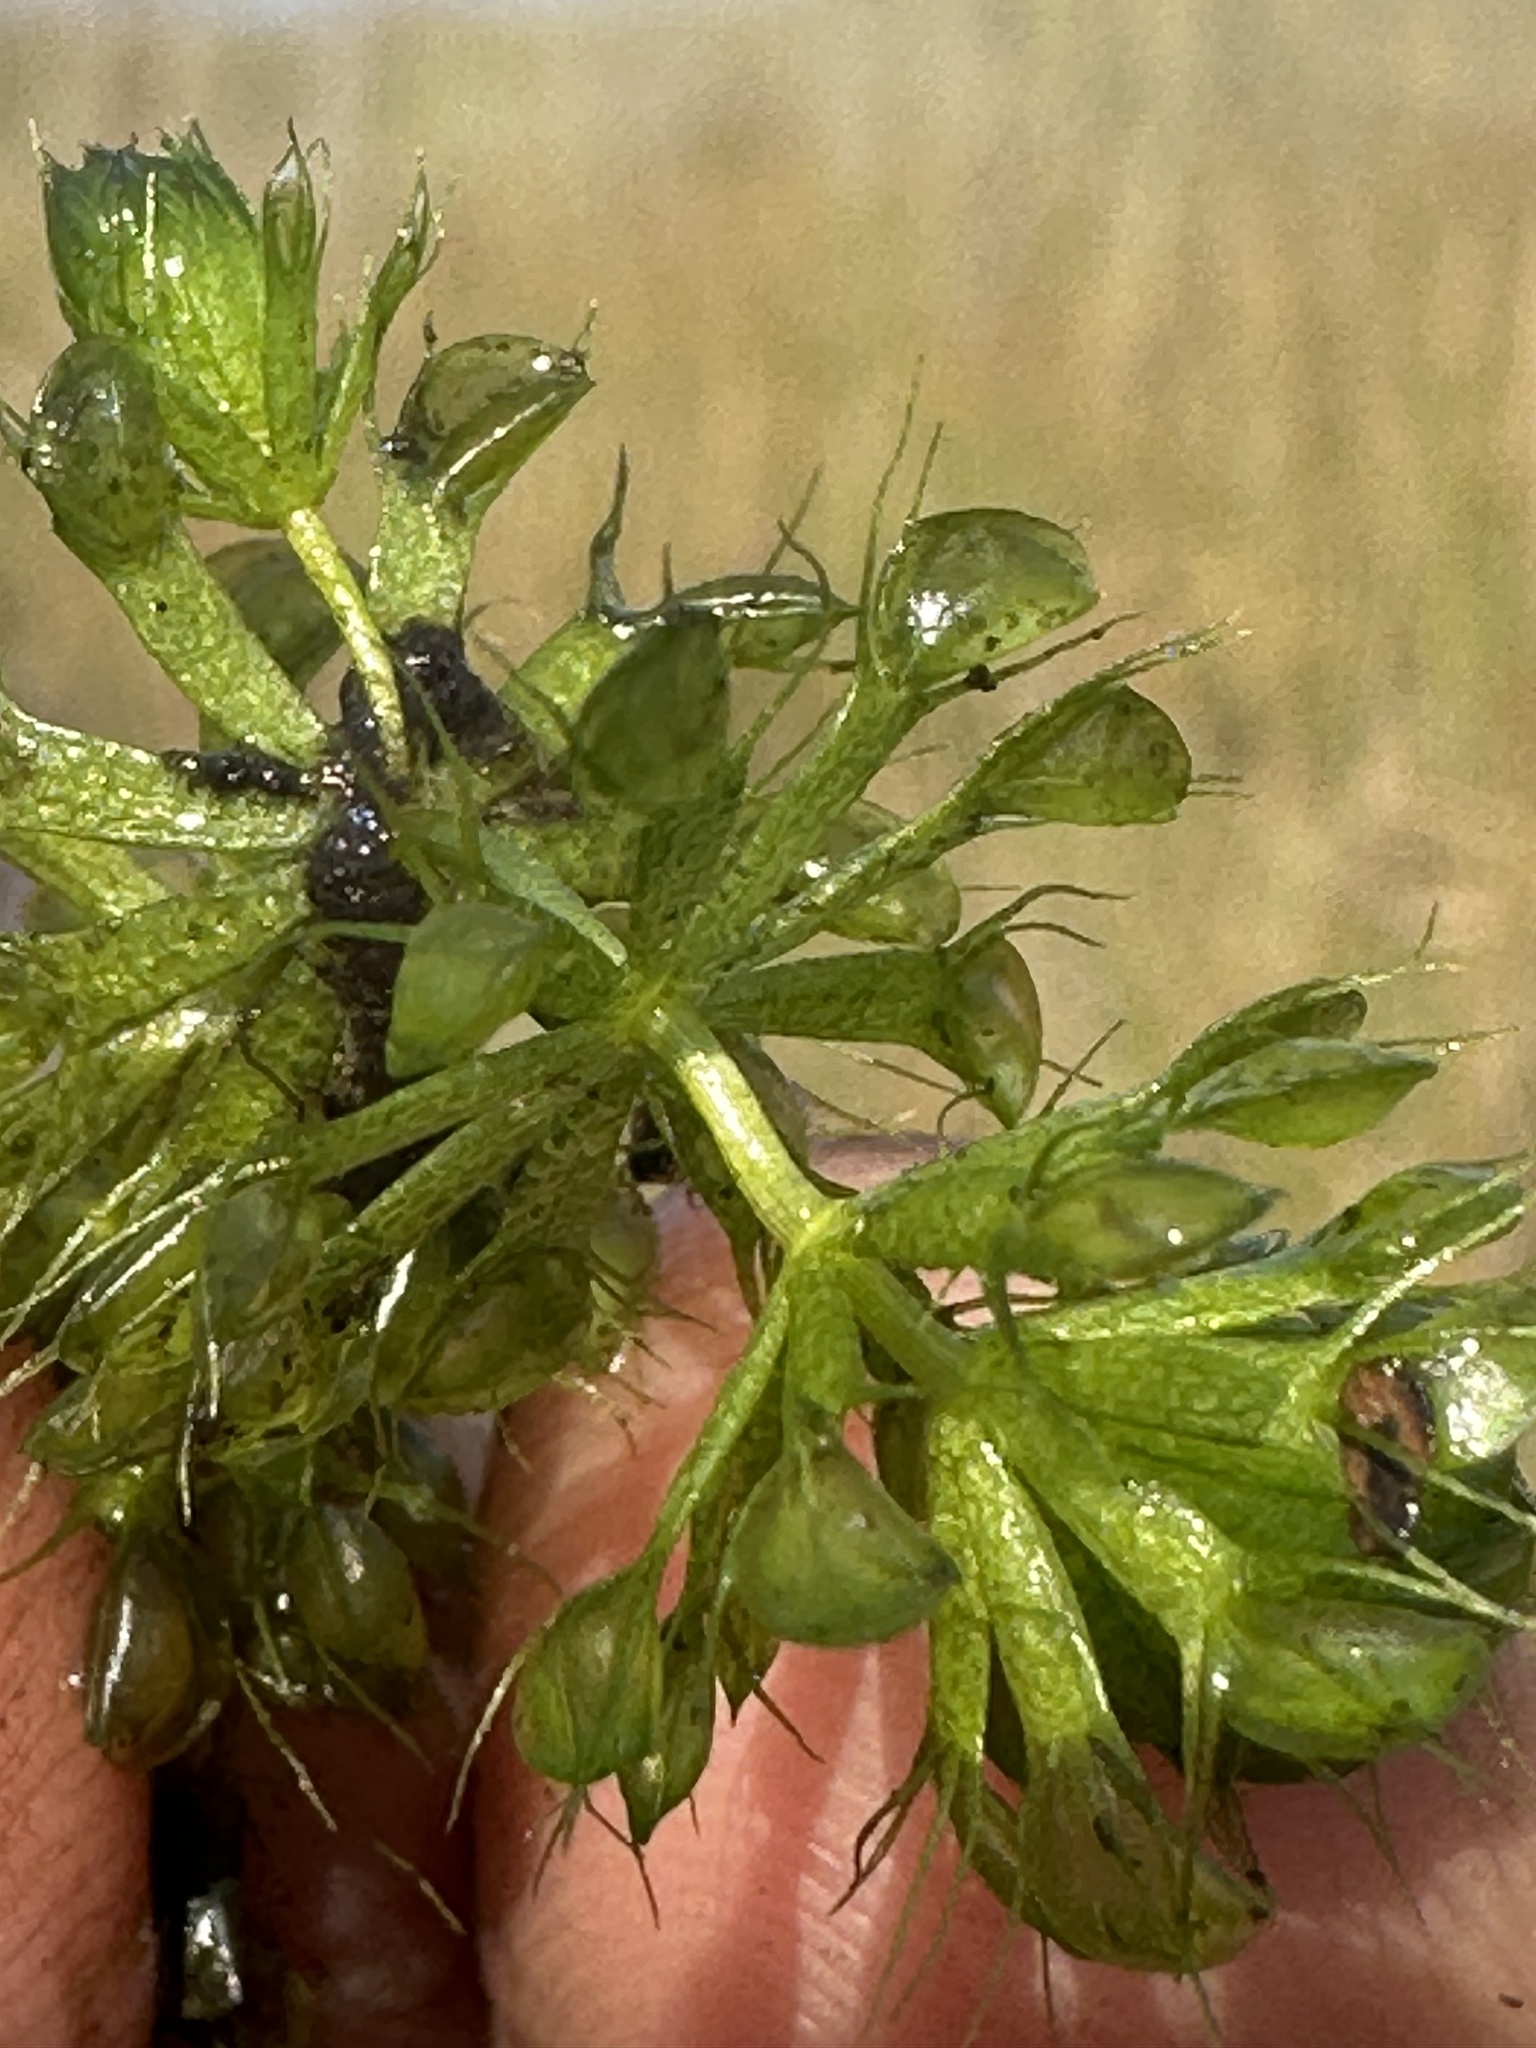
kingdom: Plantae
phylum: Tracheophyta
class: Magnoliopsida
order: Caryophyllales
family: Droseraceae
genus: Aldrovanda
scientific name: Aldrovanda vesiculosa
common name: Waterwheel plant
